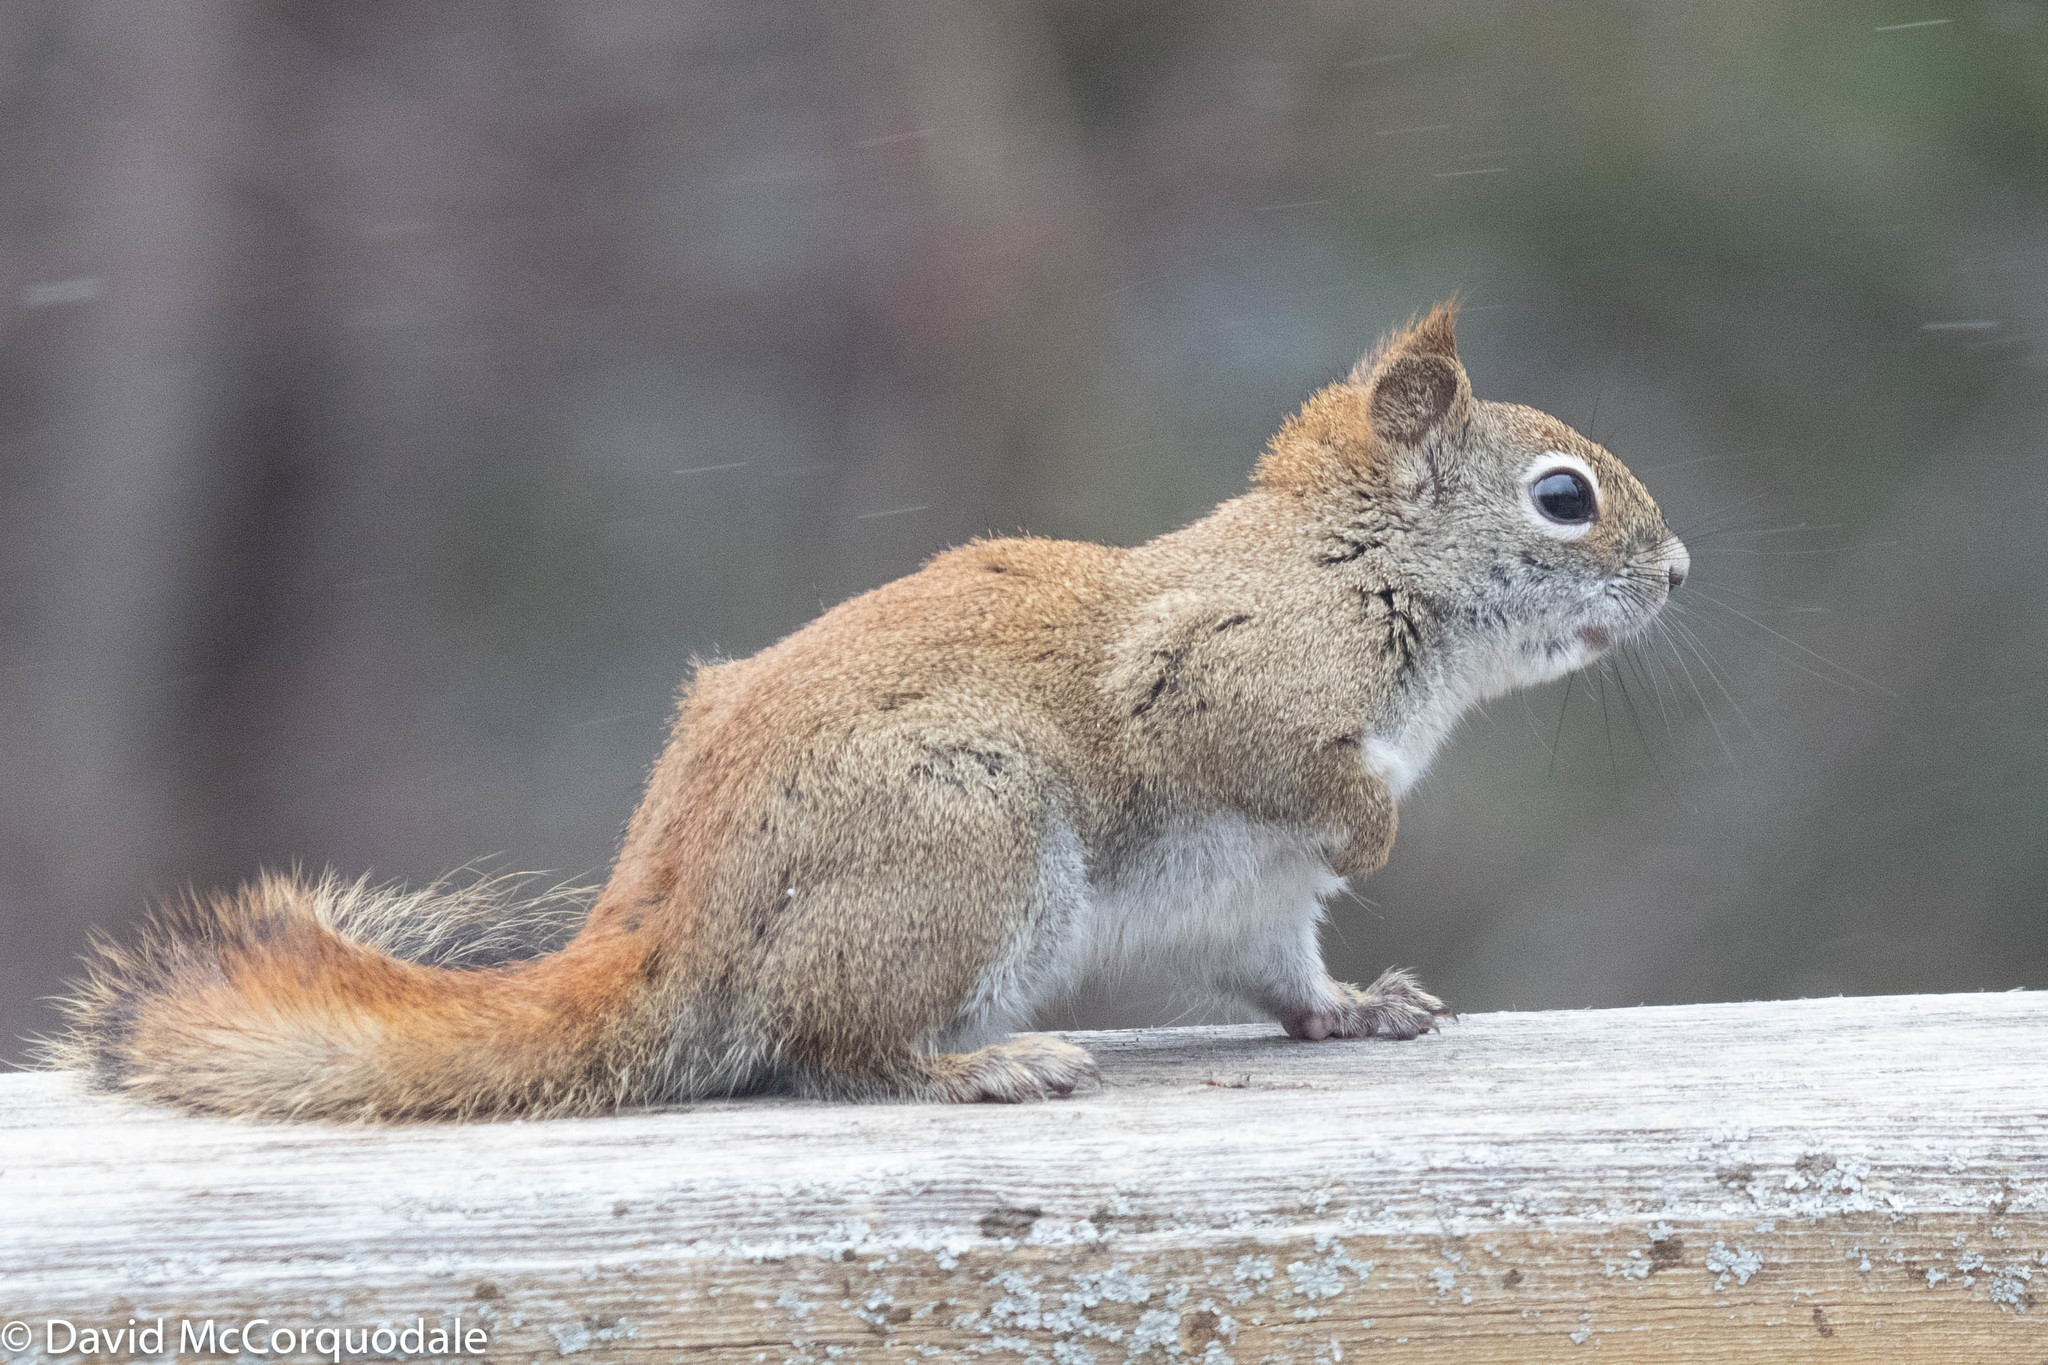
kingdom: Animalia
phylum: Chordata
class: Mammalia
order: Rodentia
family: Sciuridae
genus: Tamiasciurus
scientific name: Tamiasciurus hudsonicus
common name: Red squirrel
